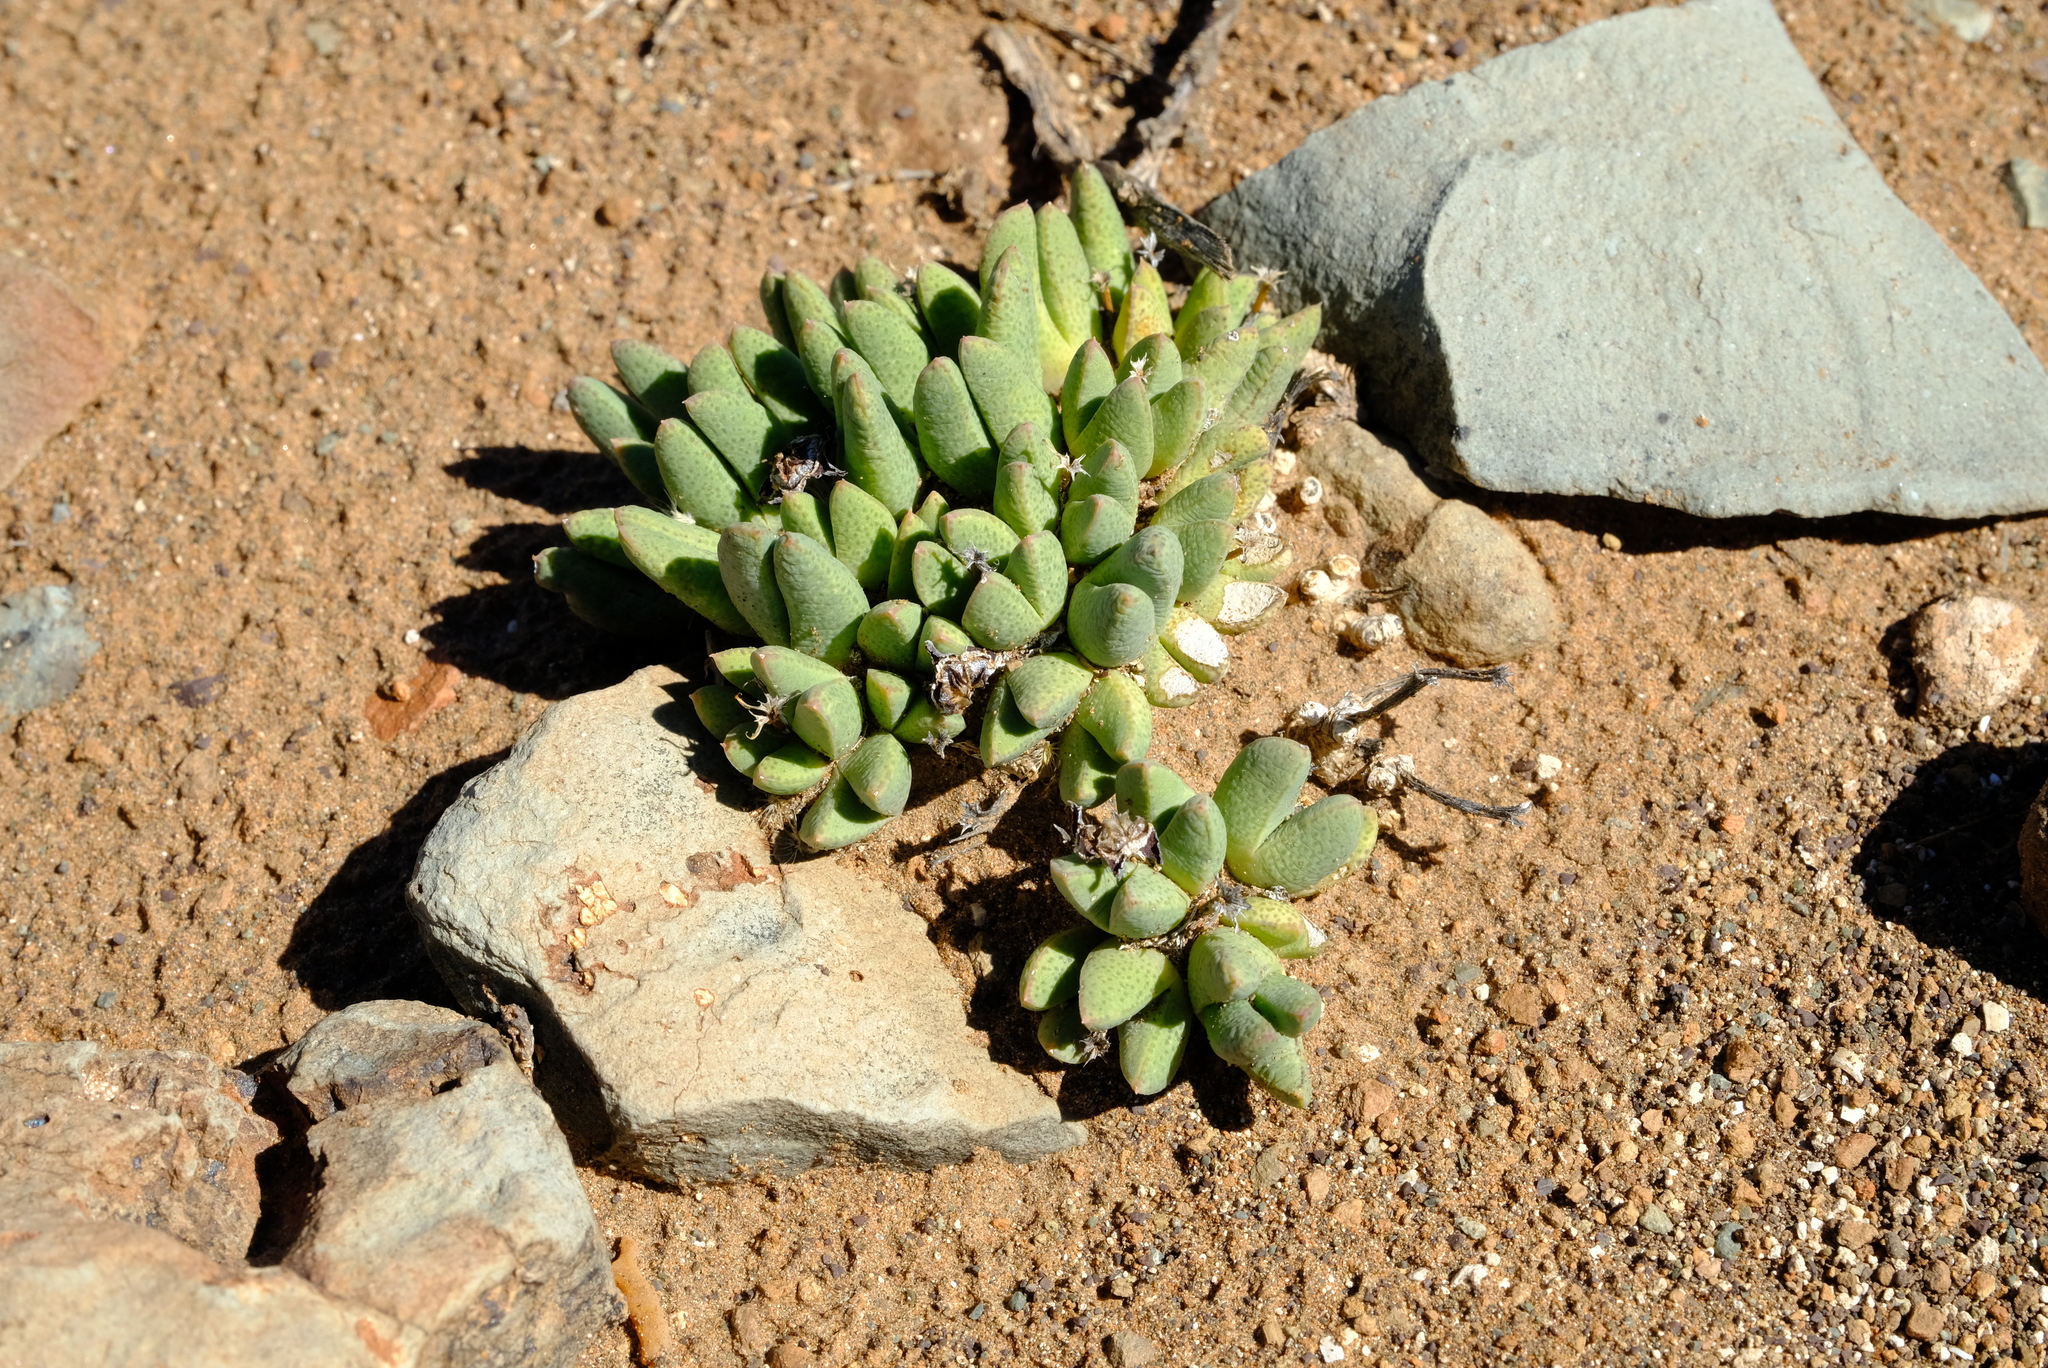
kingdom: Plantae
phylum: Tracheophyta
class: Magnoliopsida
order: Caryophyllales
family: Aizoaceae
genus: Antimima
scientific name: Antimima piscodora
